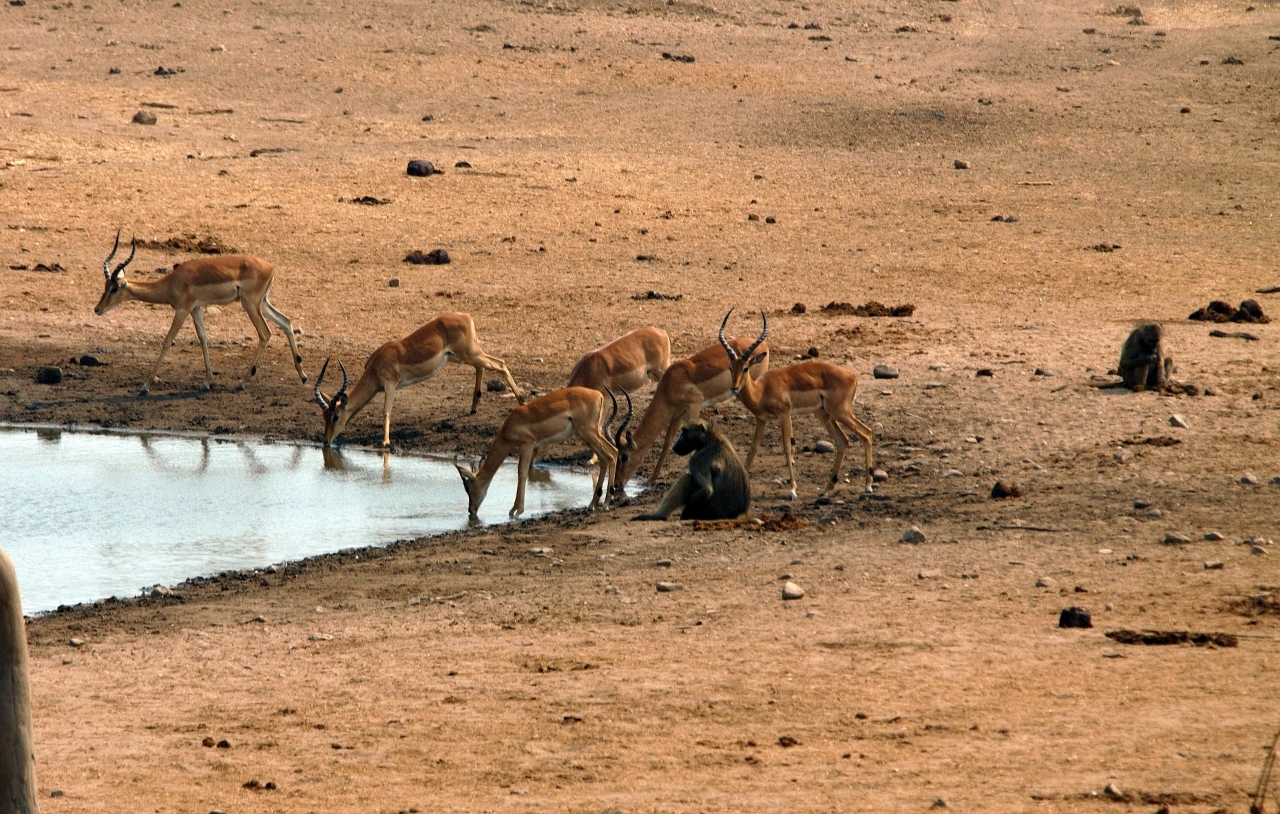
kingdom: Animalia
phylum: Chordata
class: Mammalia
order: Primates
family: Cercopithecidae
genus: Papio
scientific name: Papio ursinus
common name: Chacma baboon
